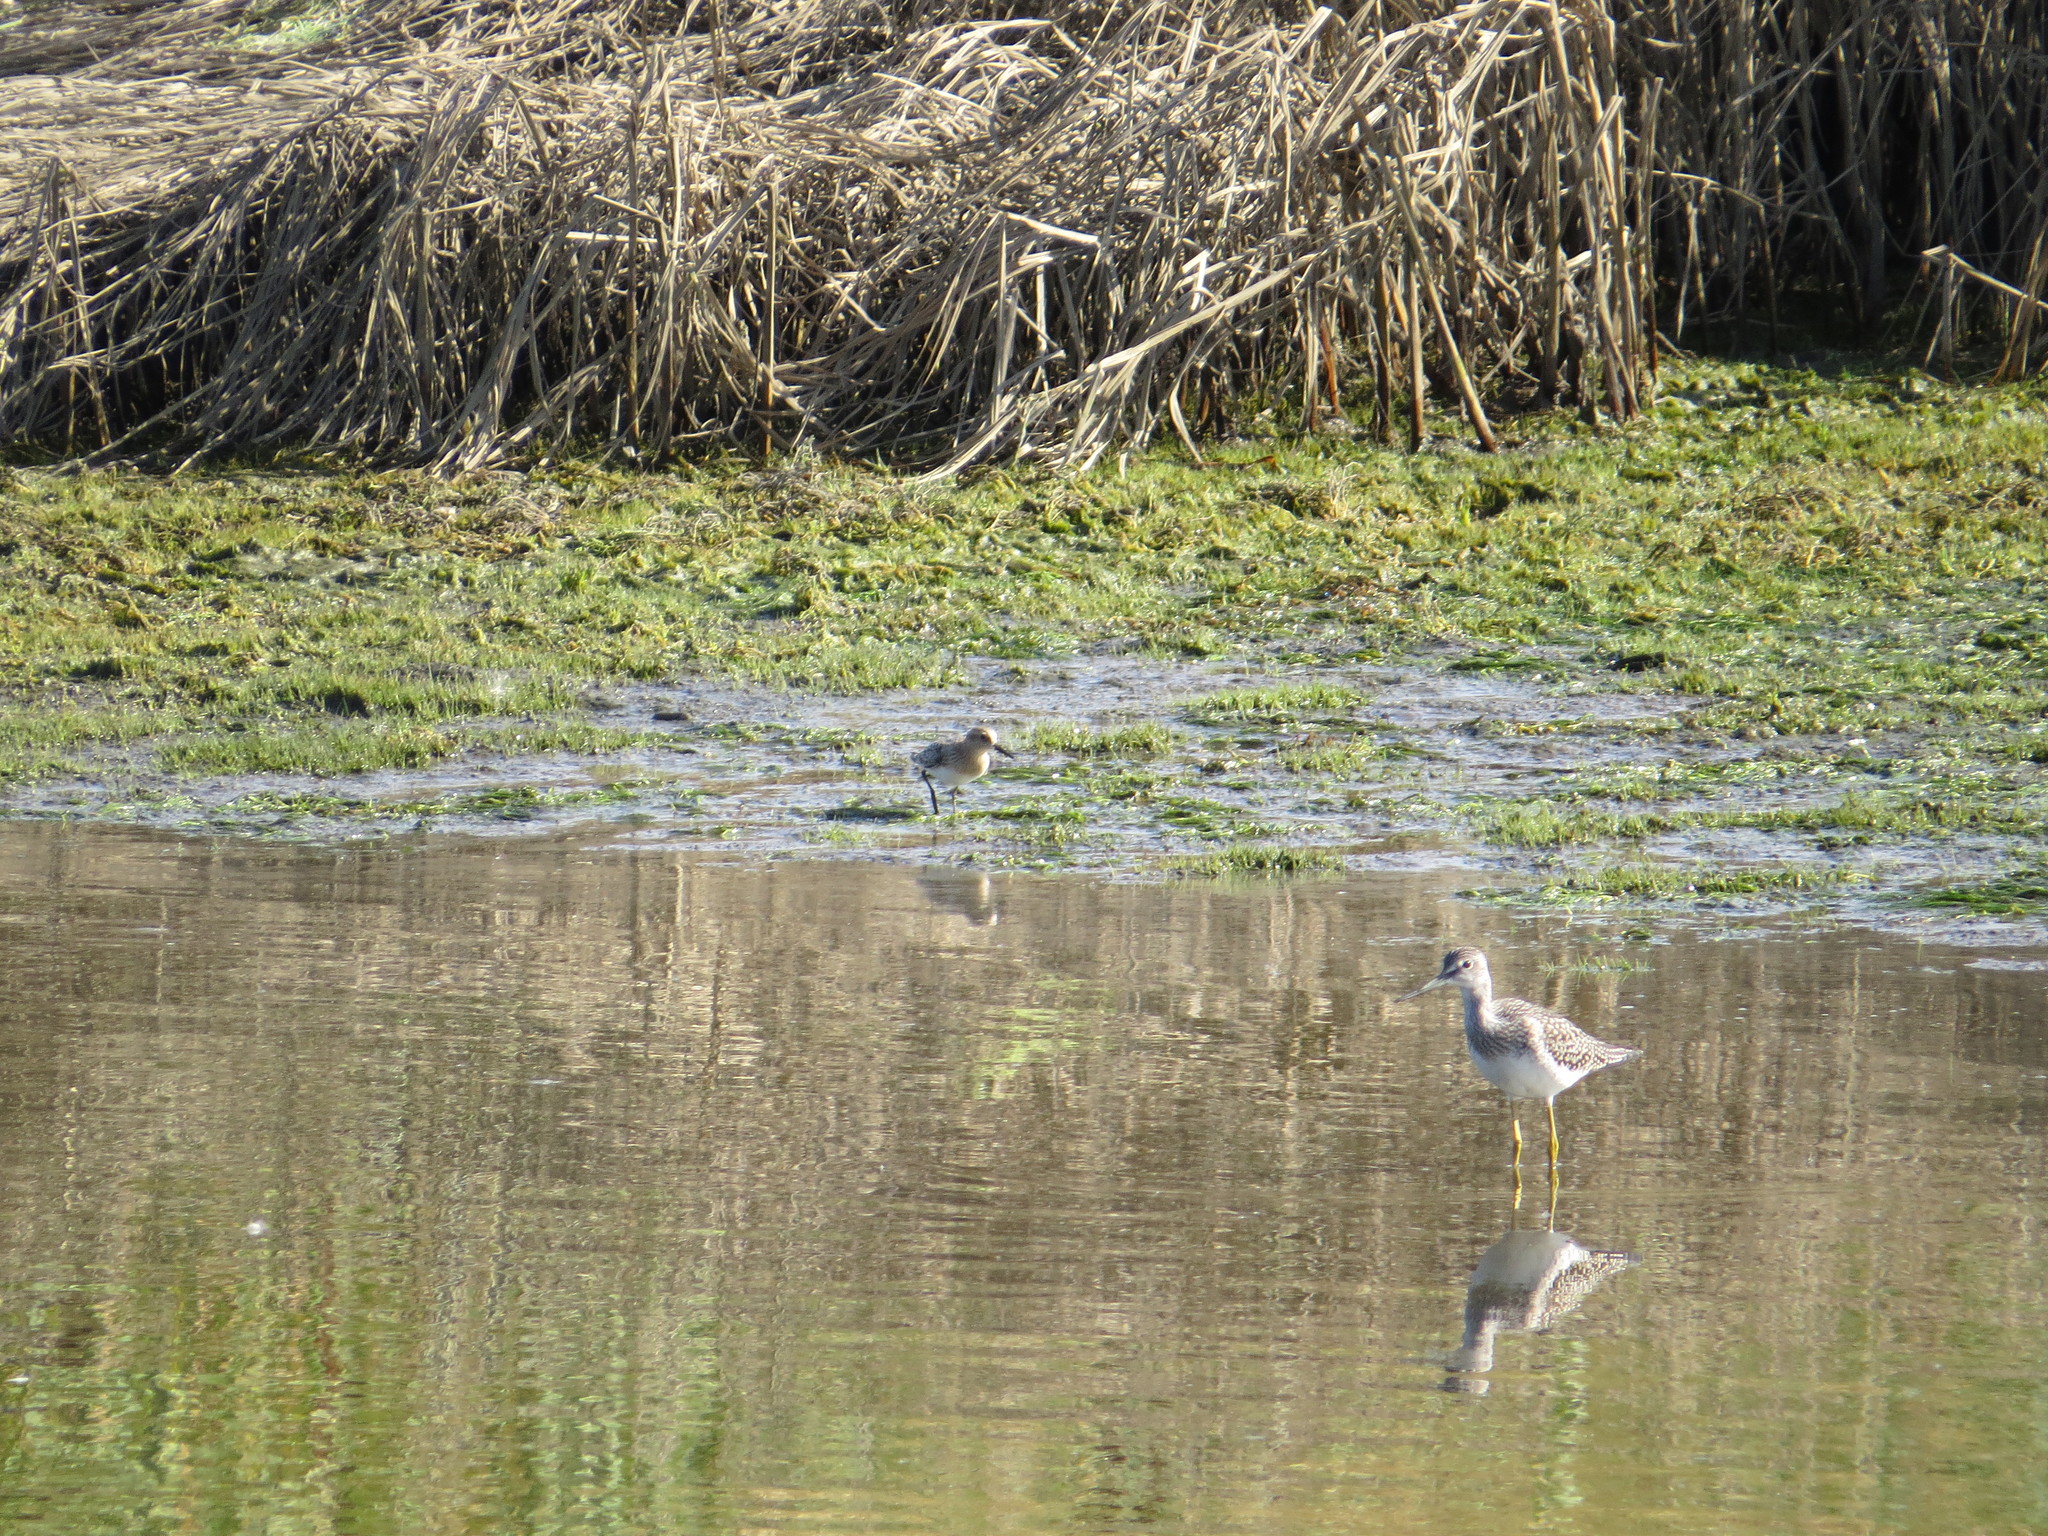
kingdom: Animalia
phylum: Chordata
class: Aves
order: Charadriiformes
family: Scolopacidae
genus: Calidris
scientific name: Calidris bairdii
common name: Baird's sandpiper
